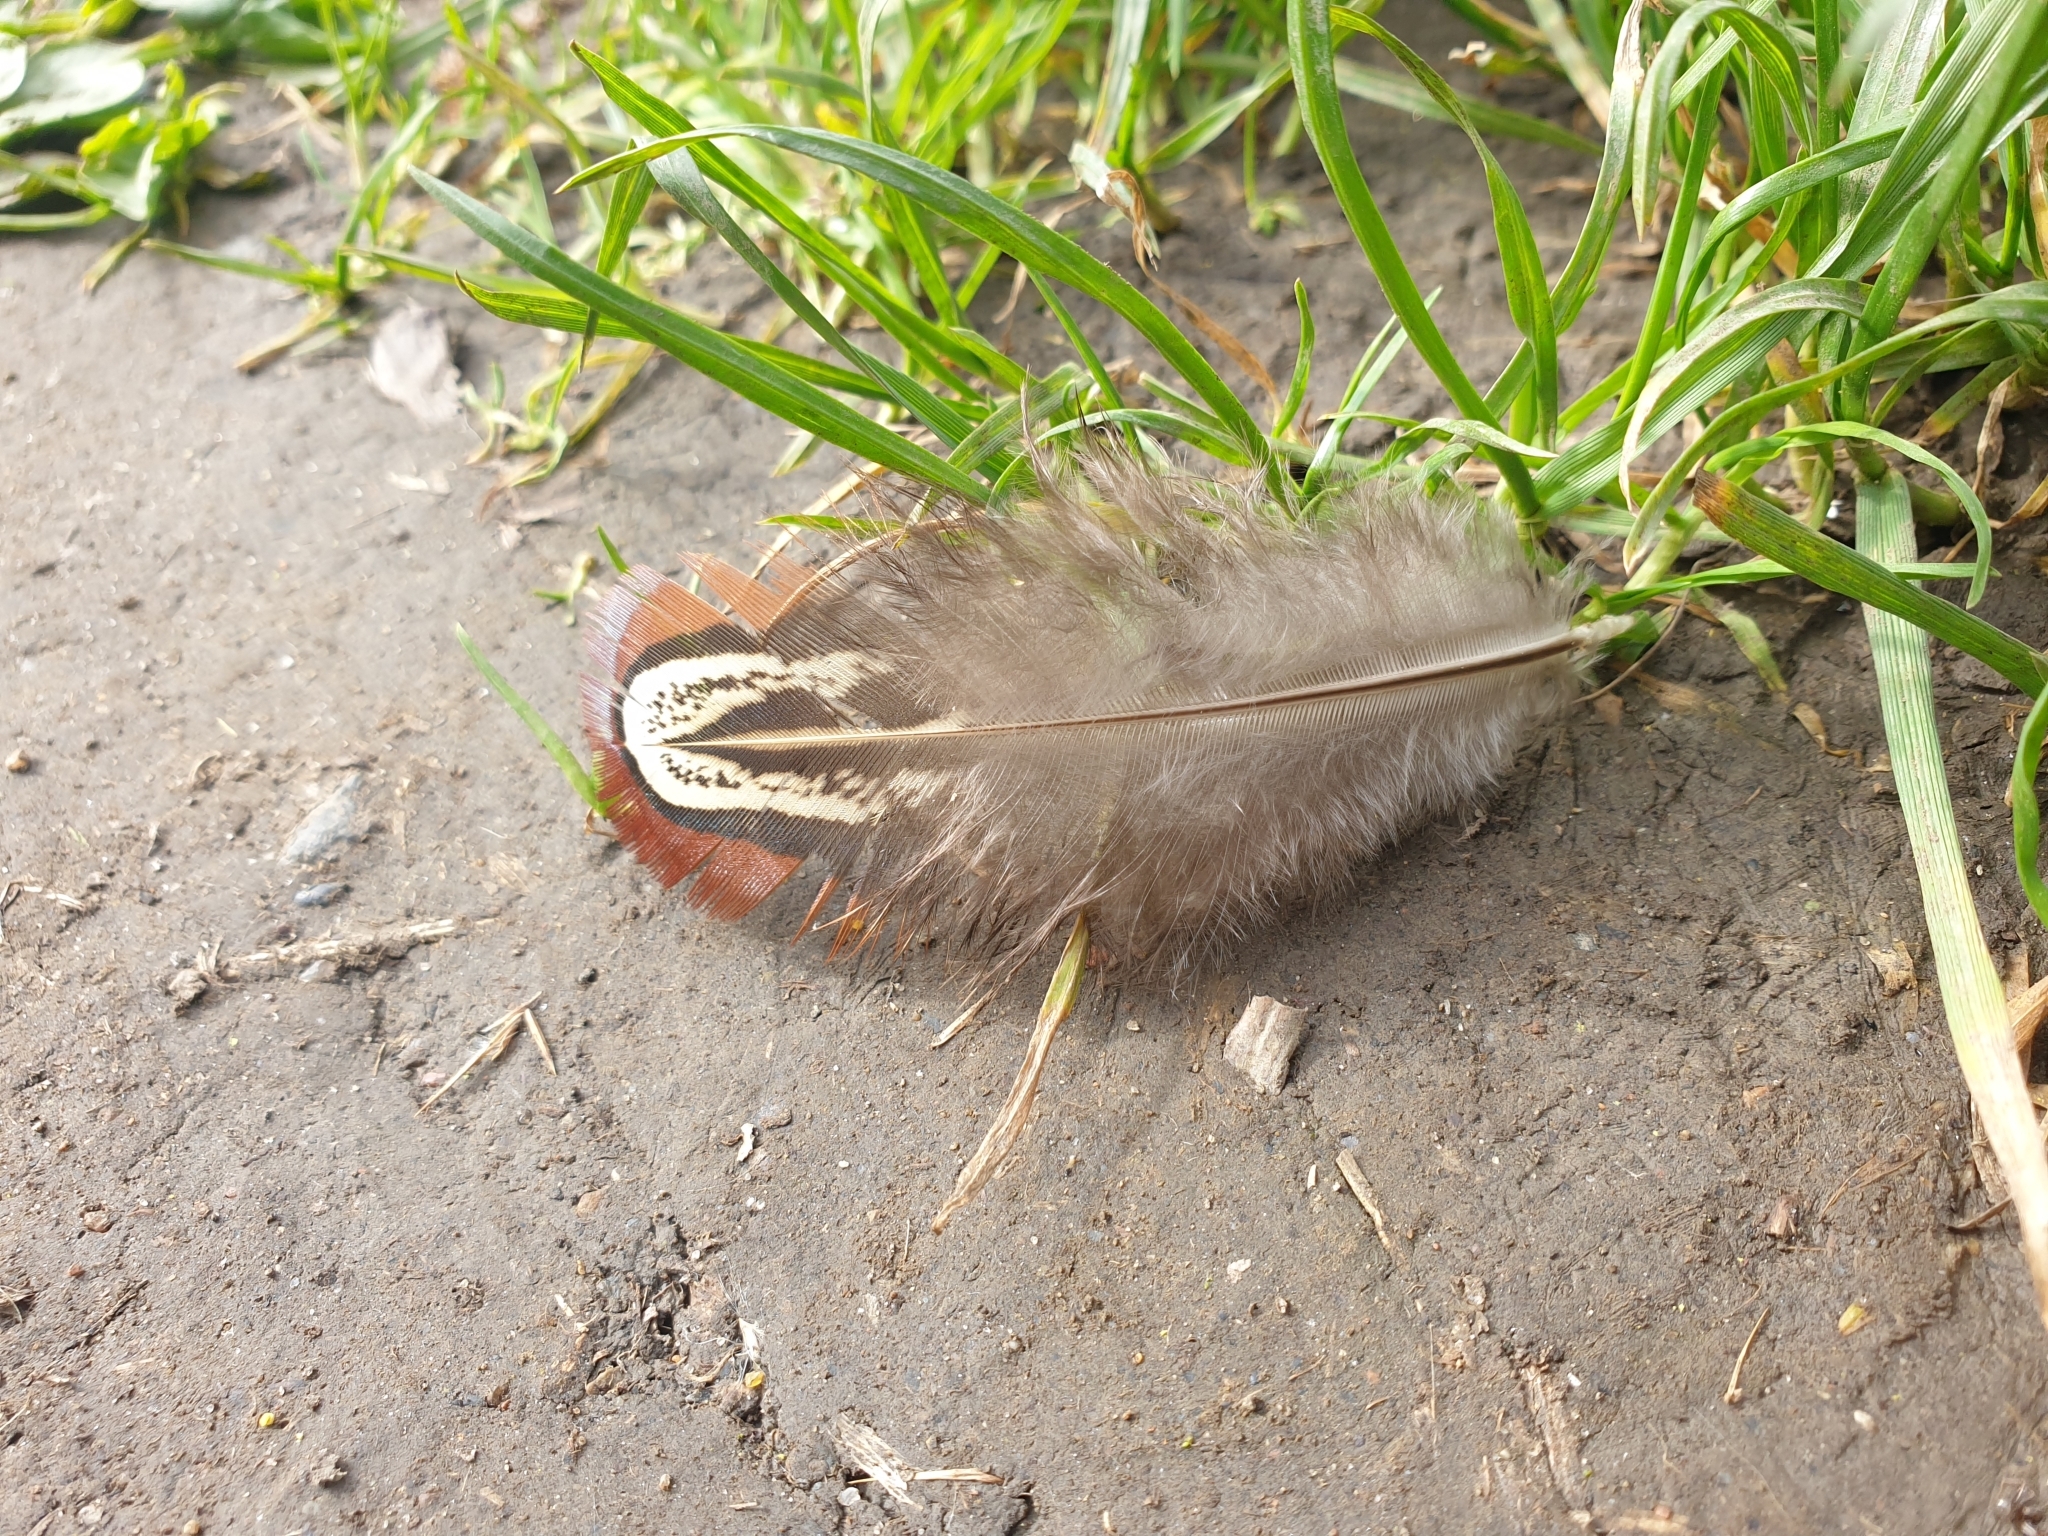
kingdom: Animalia
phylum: Chordata
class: Aves
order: Galliformes
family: Phasianidae
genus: Phasianus
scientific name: Phasianus colchicus
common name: Common pheasant
